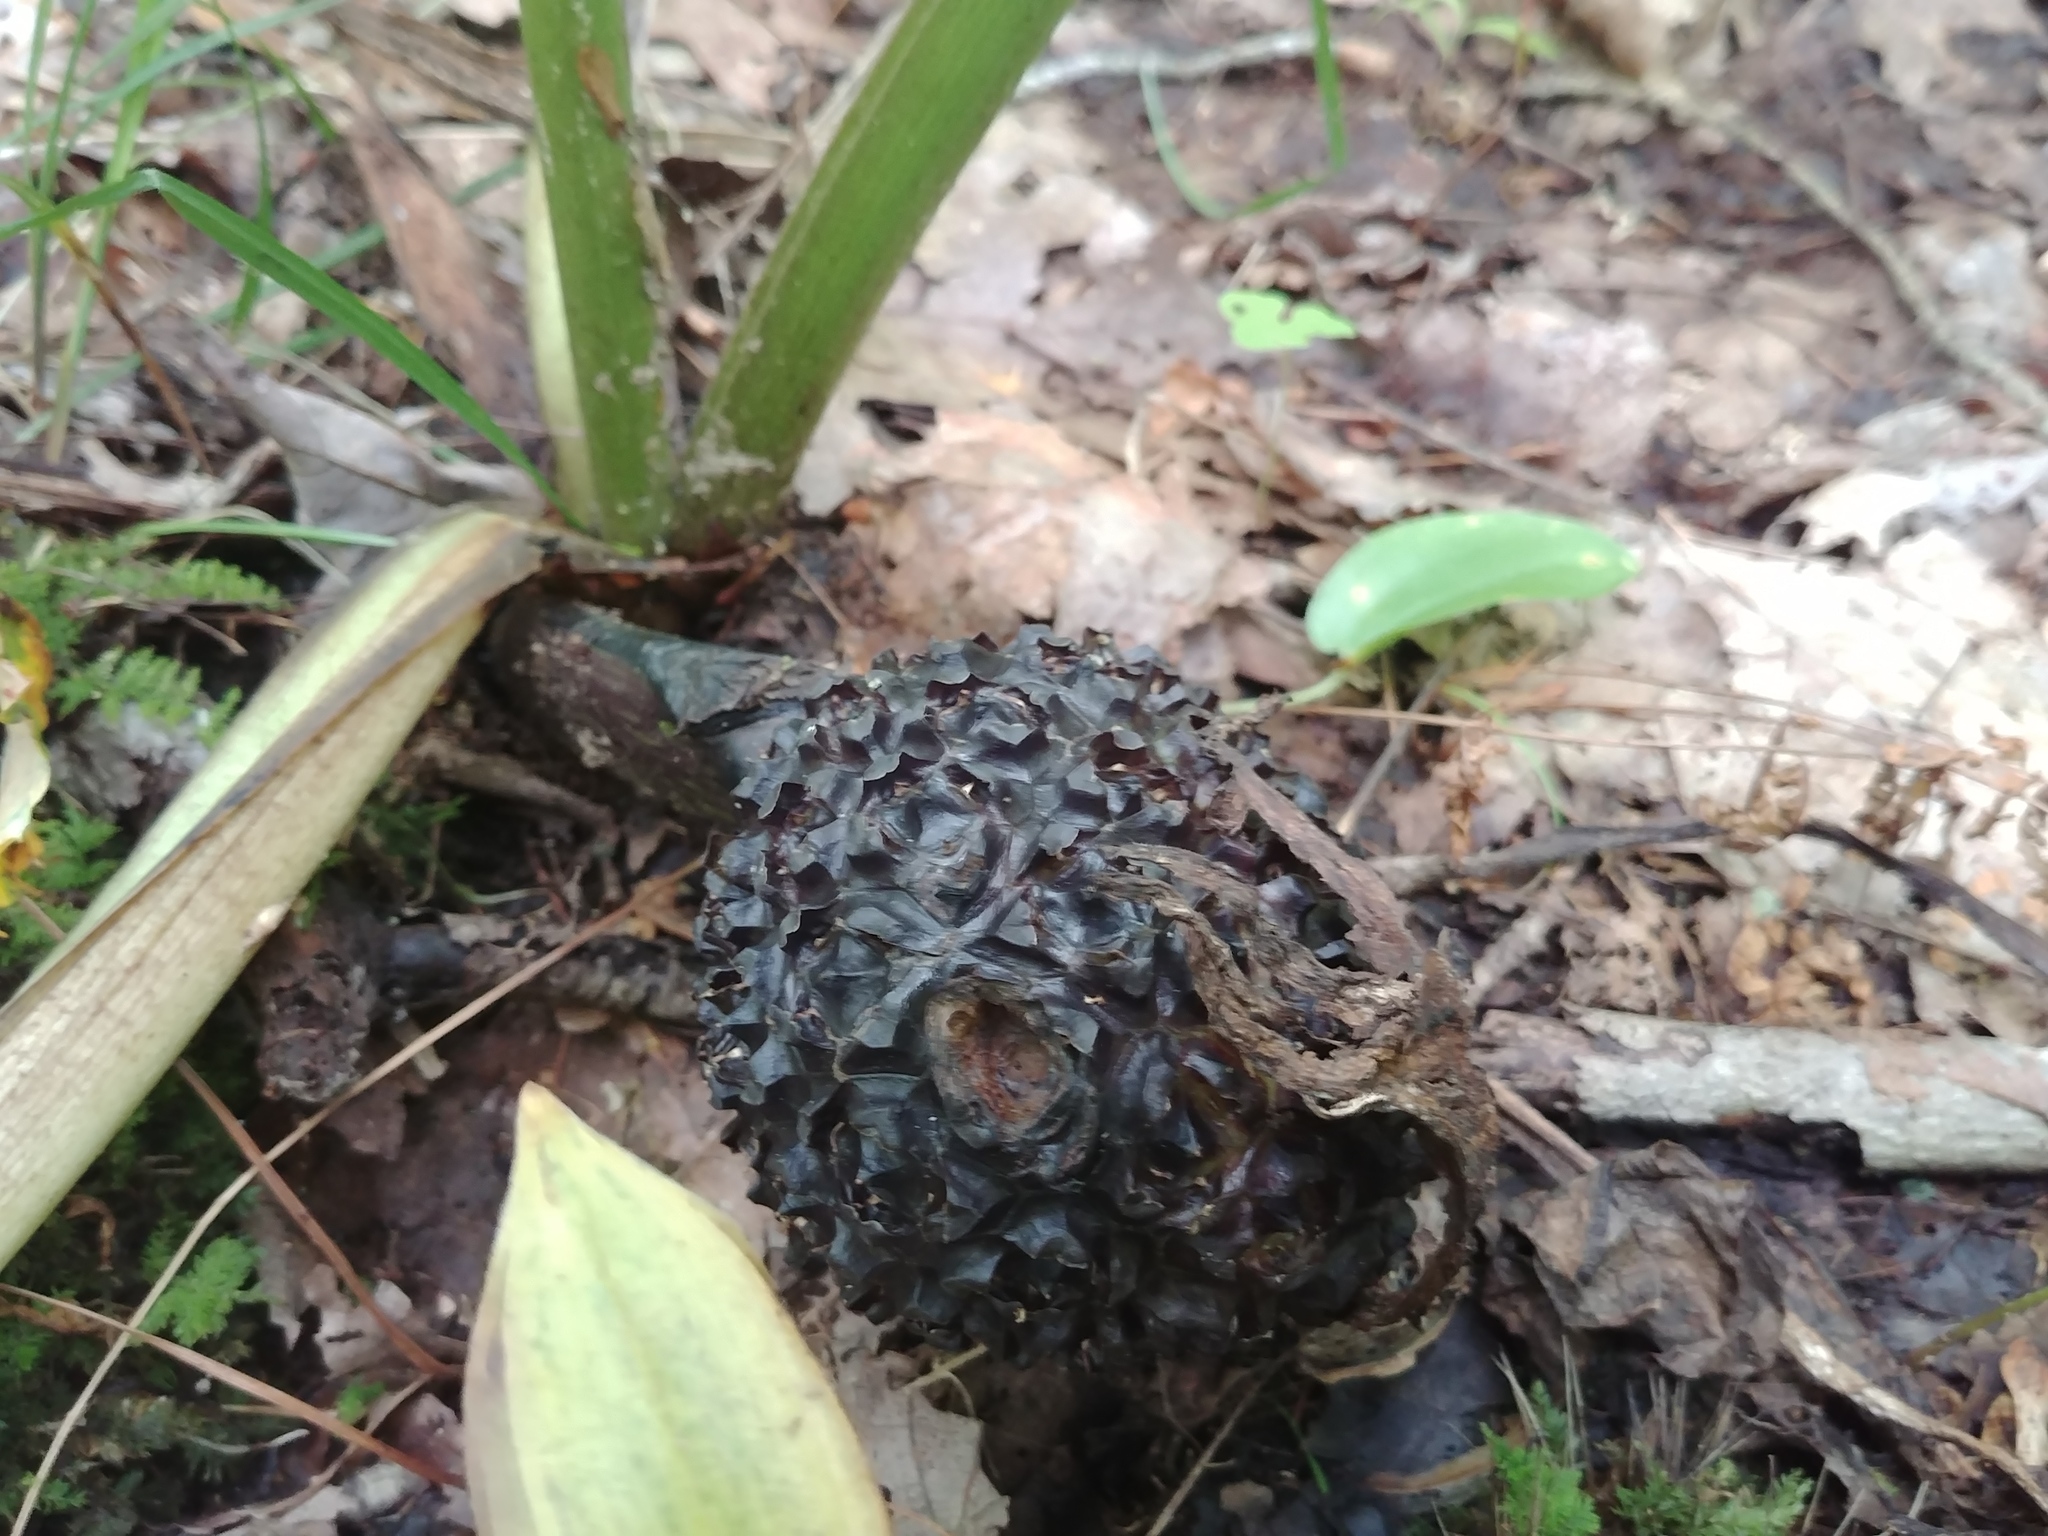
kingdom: Plantae
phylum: Tracheophyta
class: Liliopsida
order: Alismatales
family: Araceae
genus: Symplocarpus
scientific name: Symplocarpus foetidus
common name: Eastern skunk cabbage
